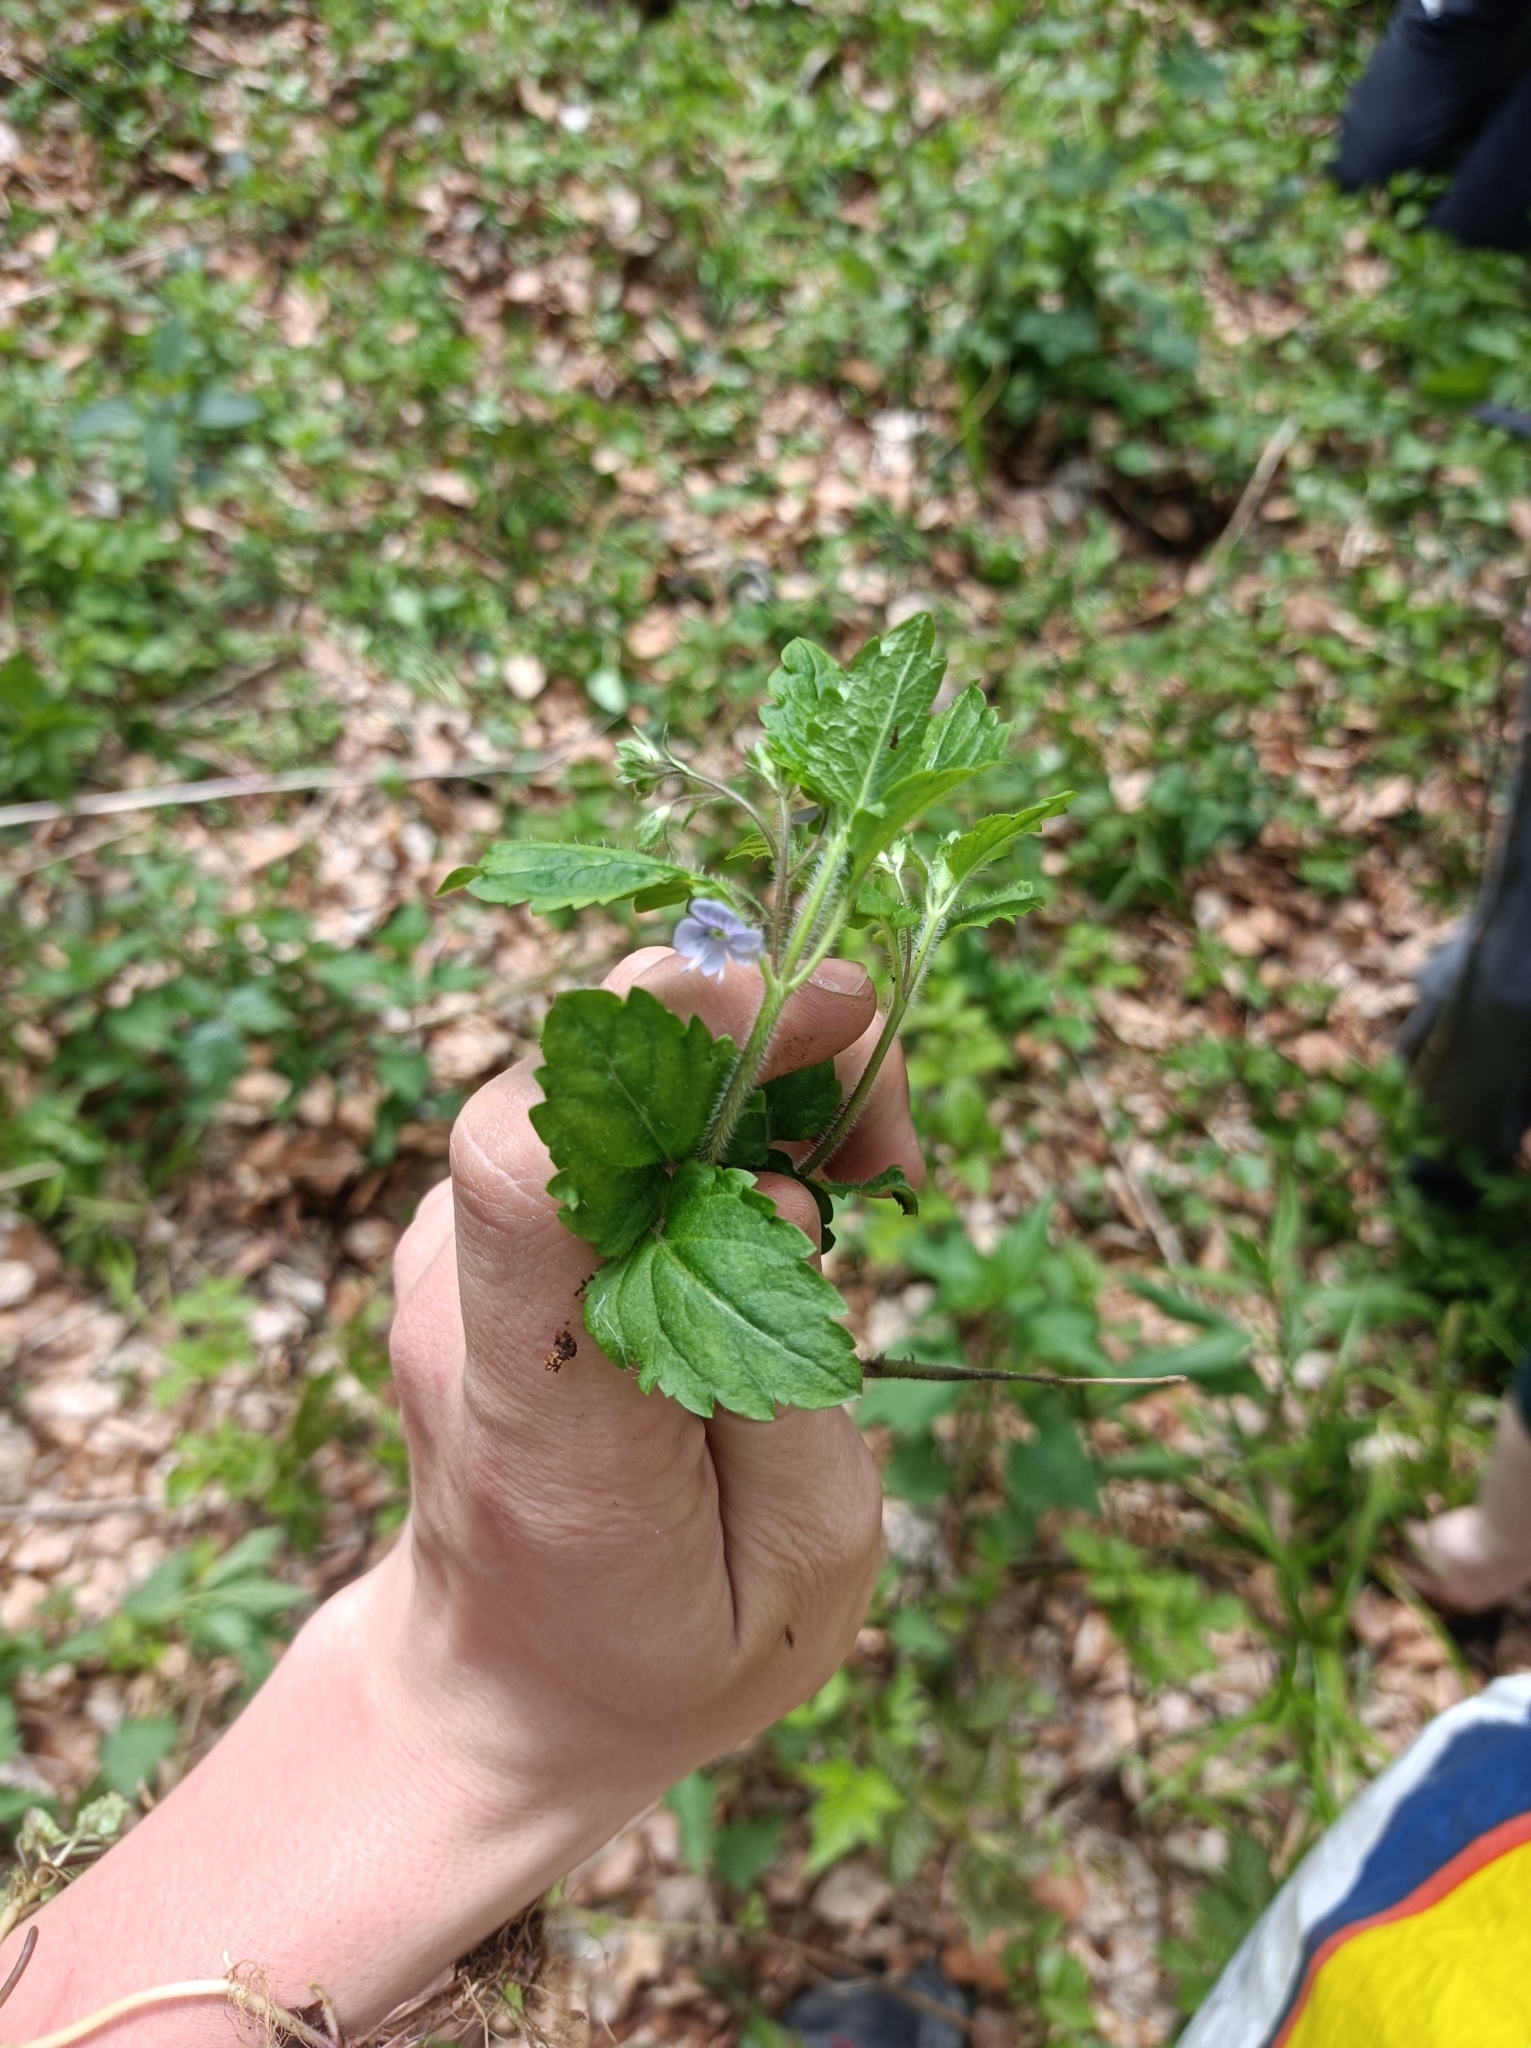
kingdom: Plantae
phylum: Tracheophyta
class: Magnoliopsida
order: Lamiales
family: Plantaginaceae
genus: Veronica
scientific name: Veronica montana
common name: Wood speedwell
